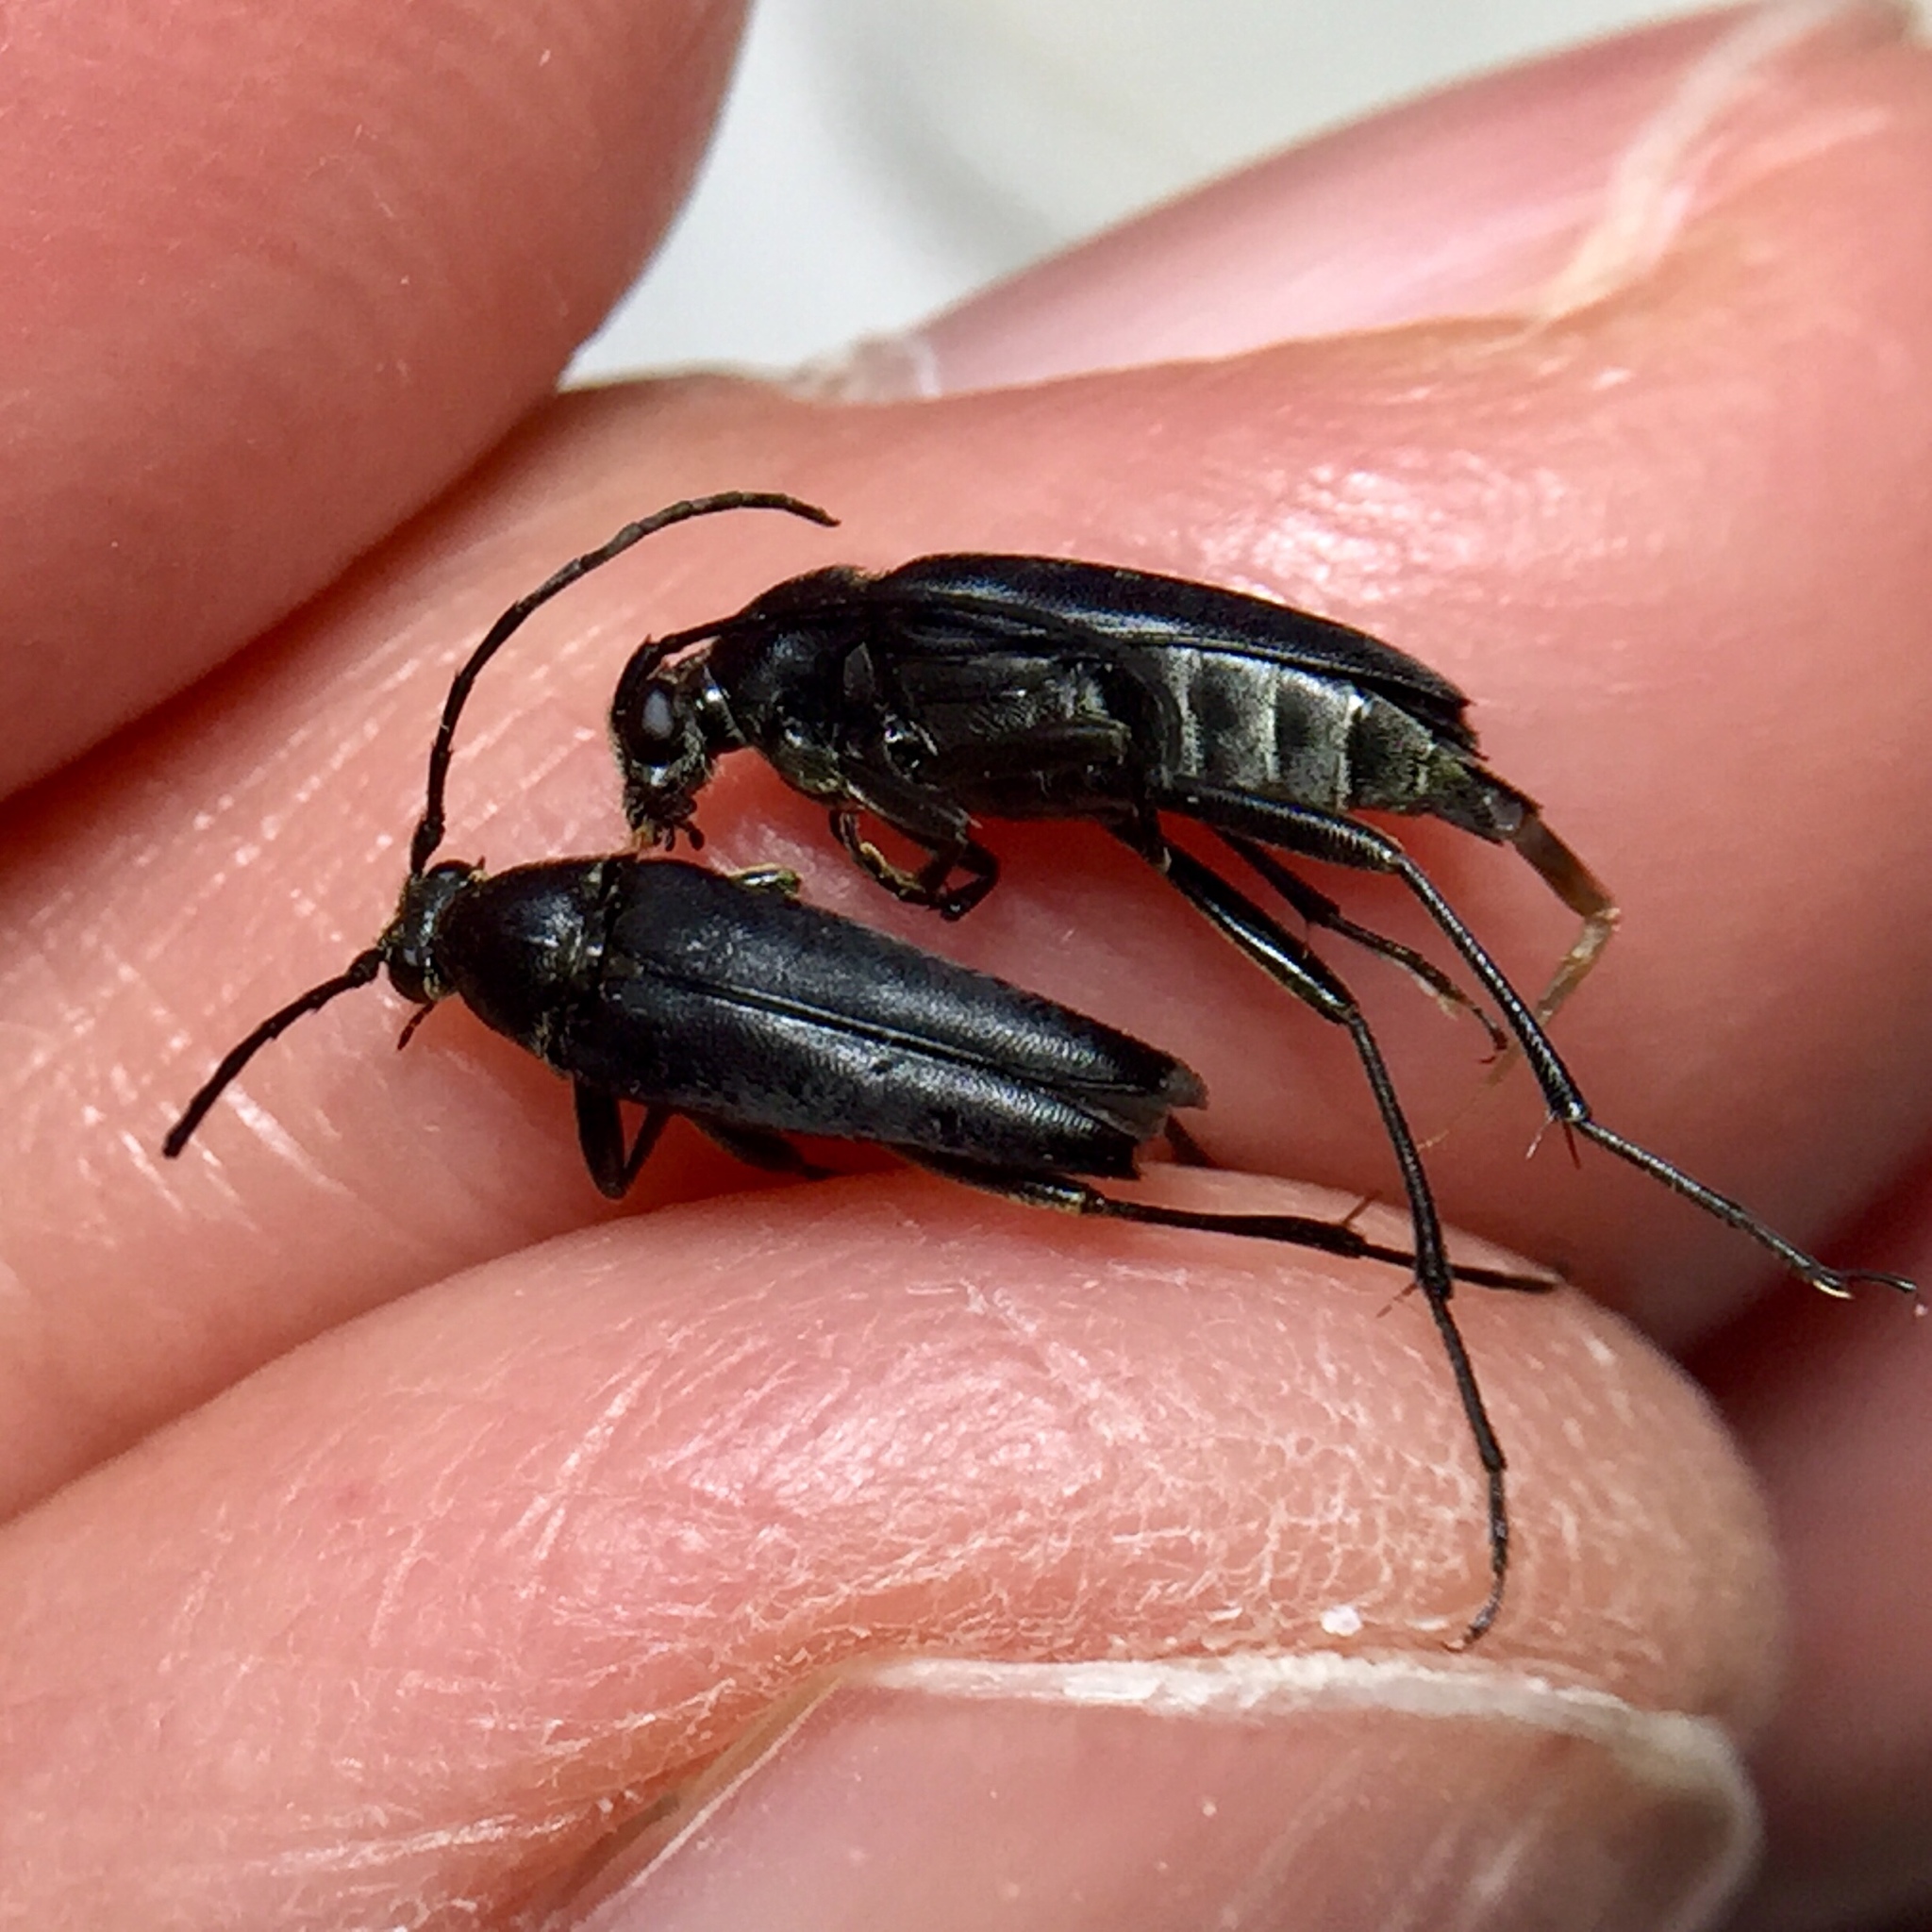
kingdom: Animalia
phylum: Arthropoda
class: Insecta
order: Coleoptera
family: Cerambycidae
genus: Typocerus
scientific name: Typocerus lugubris
